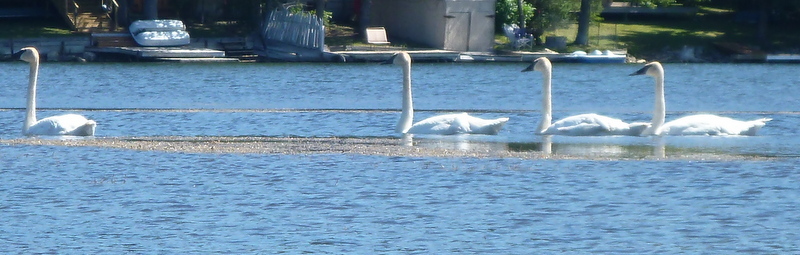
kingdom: Animalia
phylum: Chordata
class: Aves
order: Anseriformes
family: Anatidae
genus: Cygnus
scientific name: Cygnus buccinator
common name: Trumpeter swan
